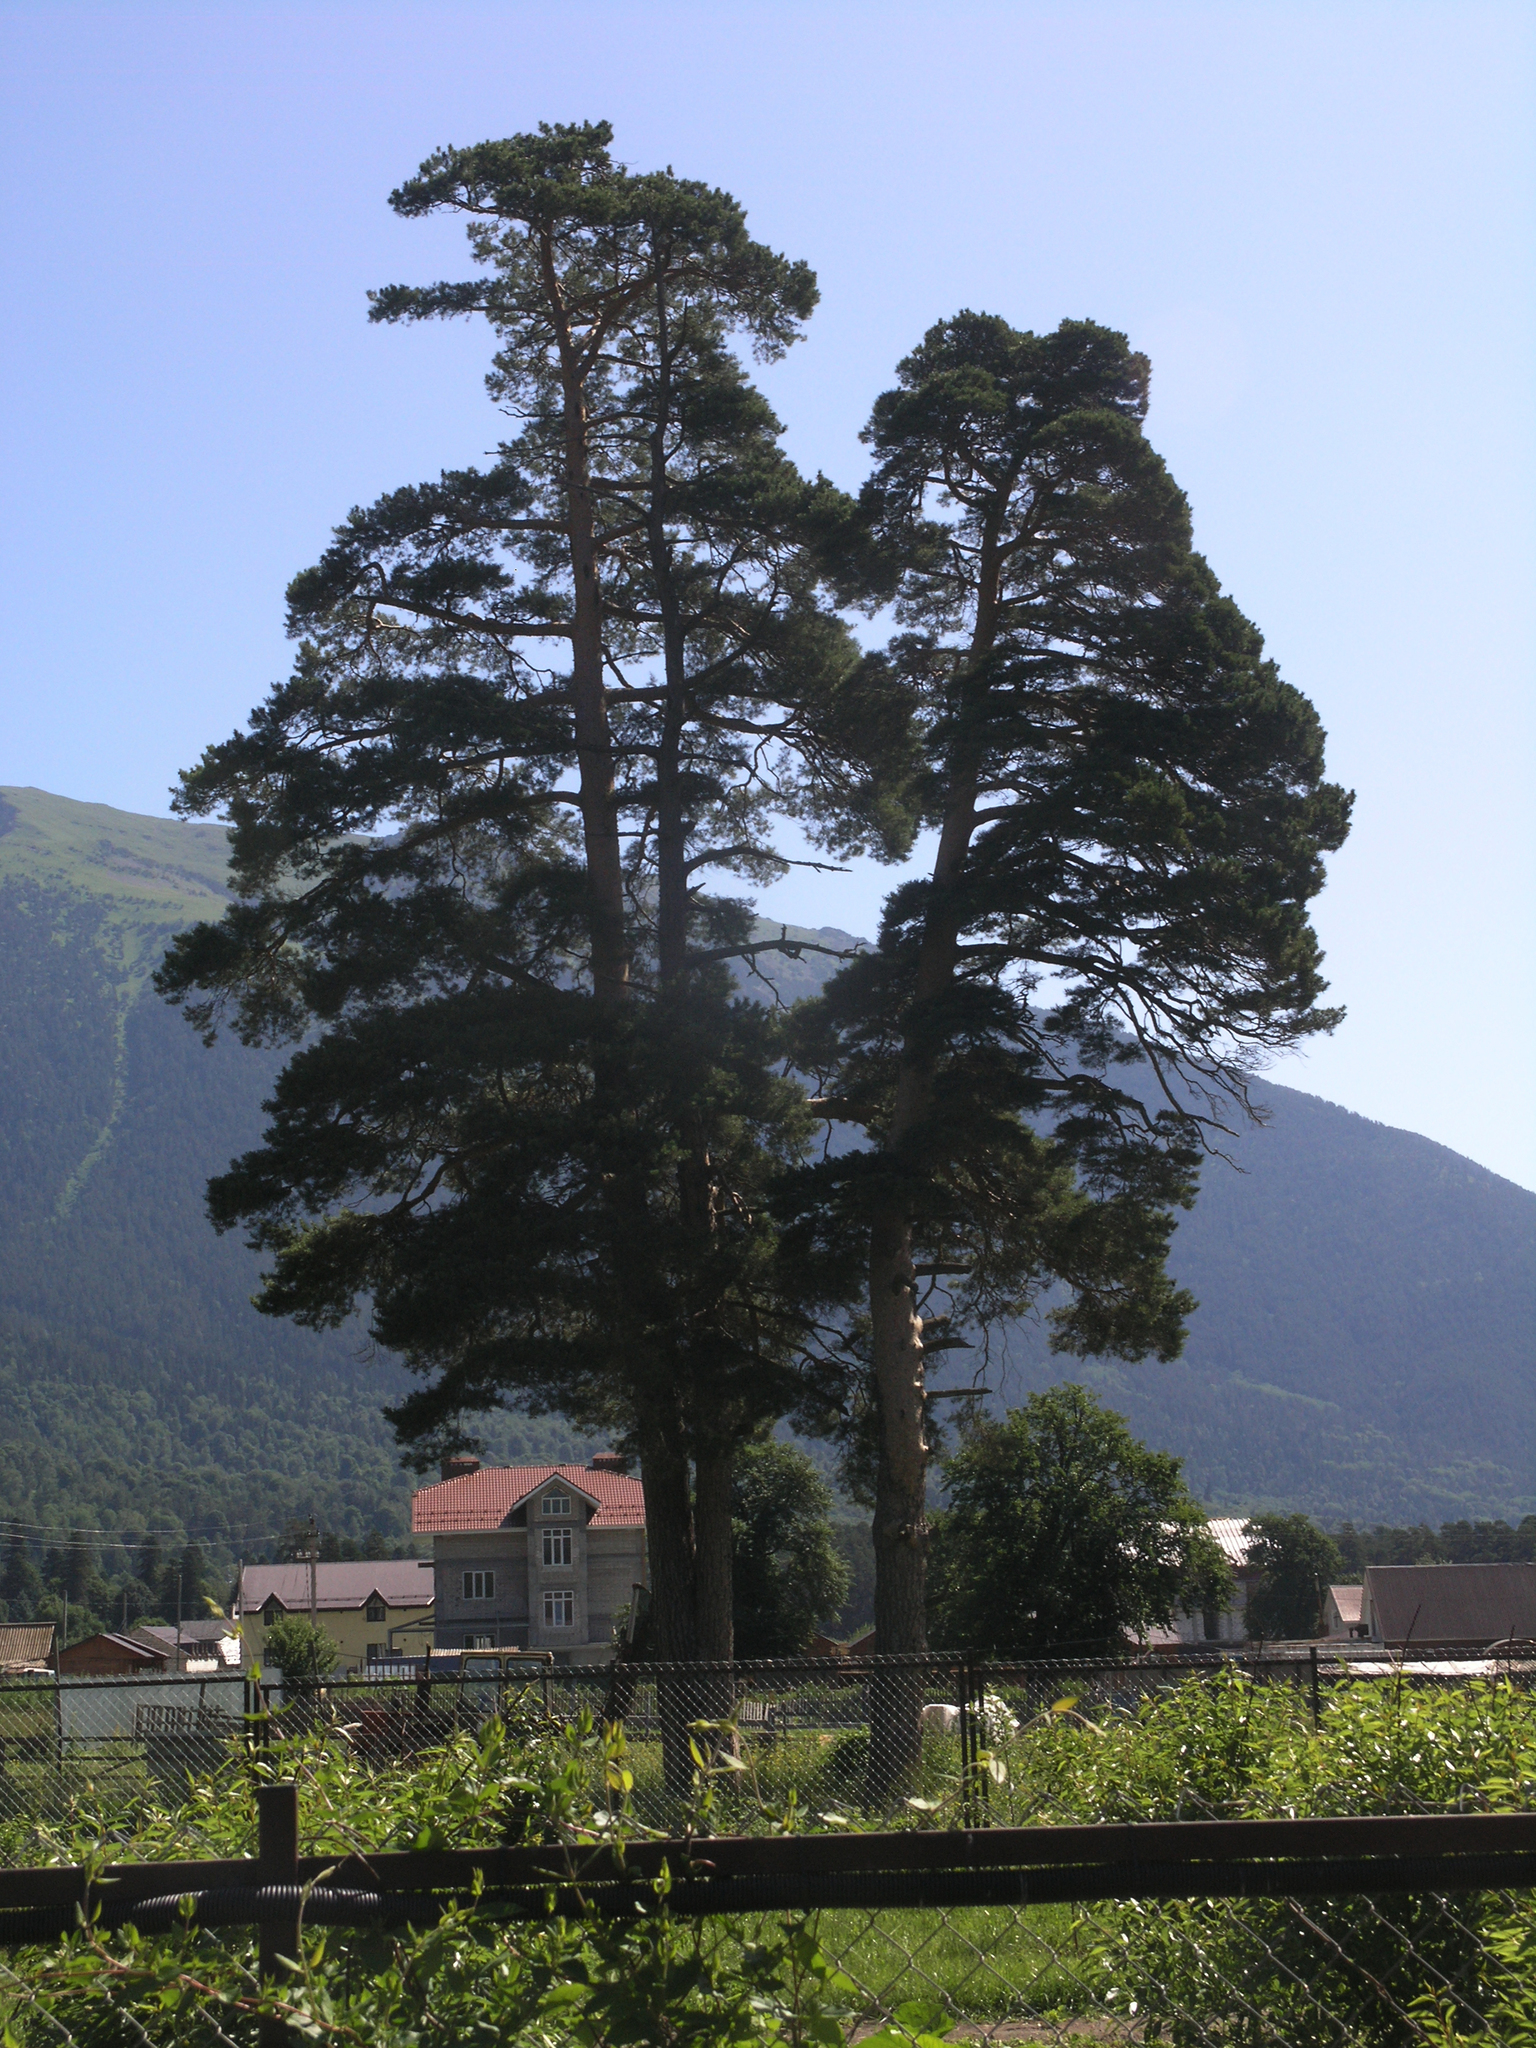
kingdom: Plantae
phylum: Tracheophyta
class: Pinopsida
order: Pinales
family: Pinaceae
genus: Pinus
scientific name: Pinus sylvestris
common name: Scots pine
